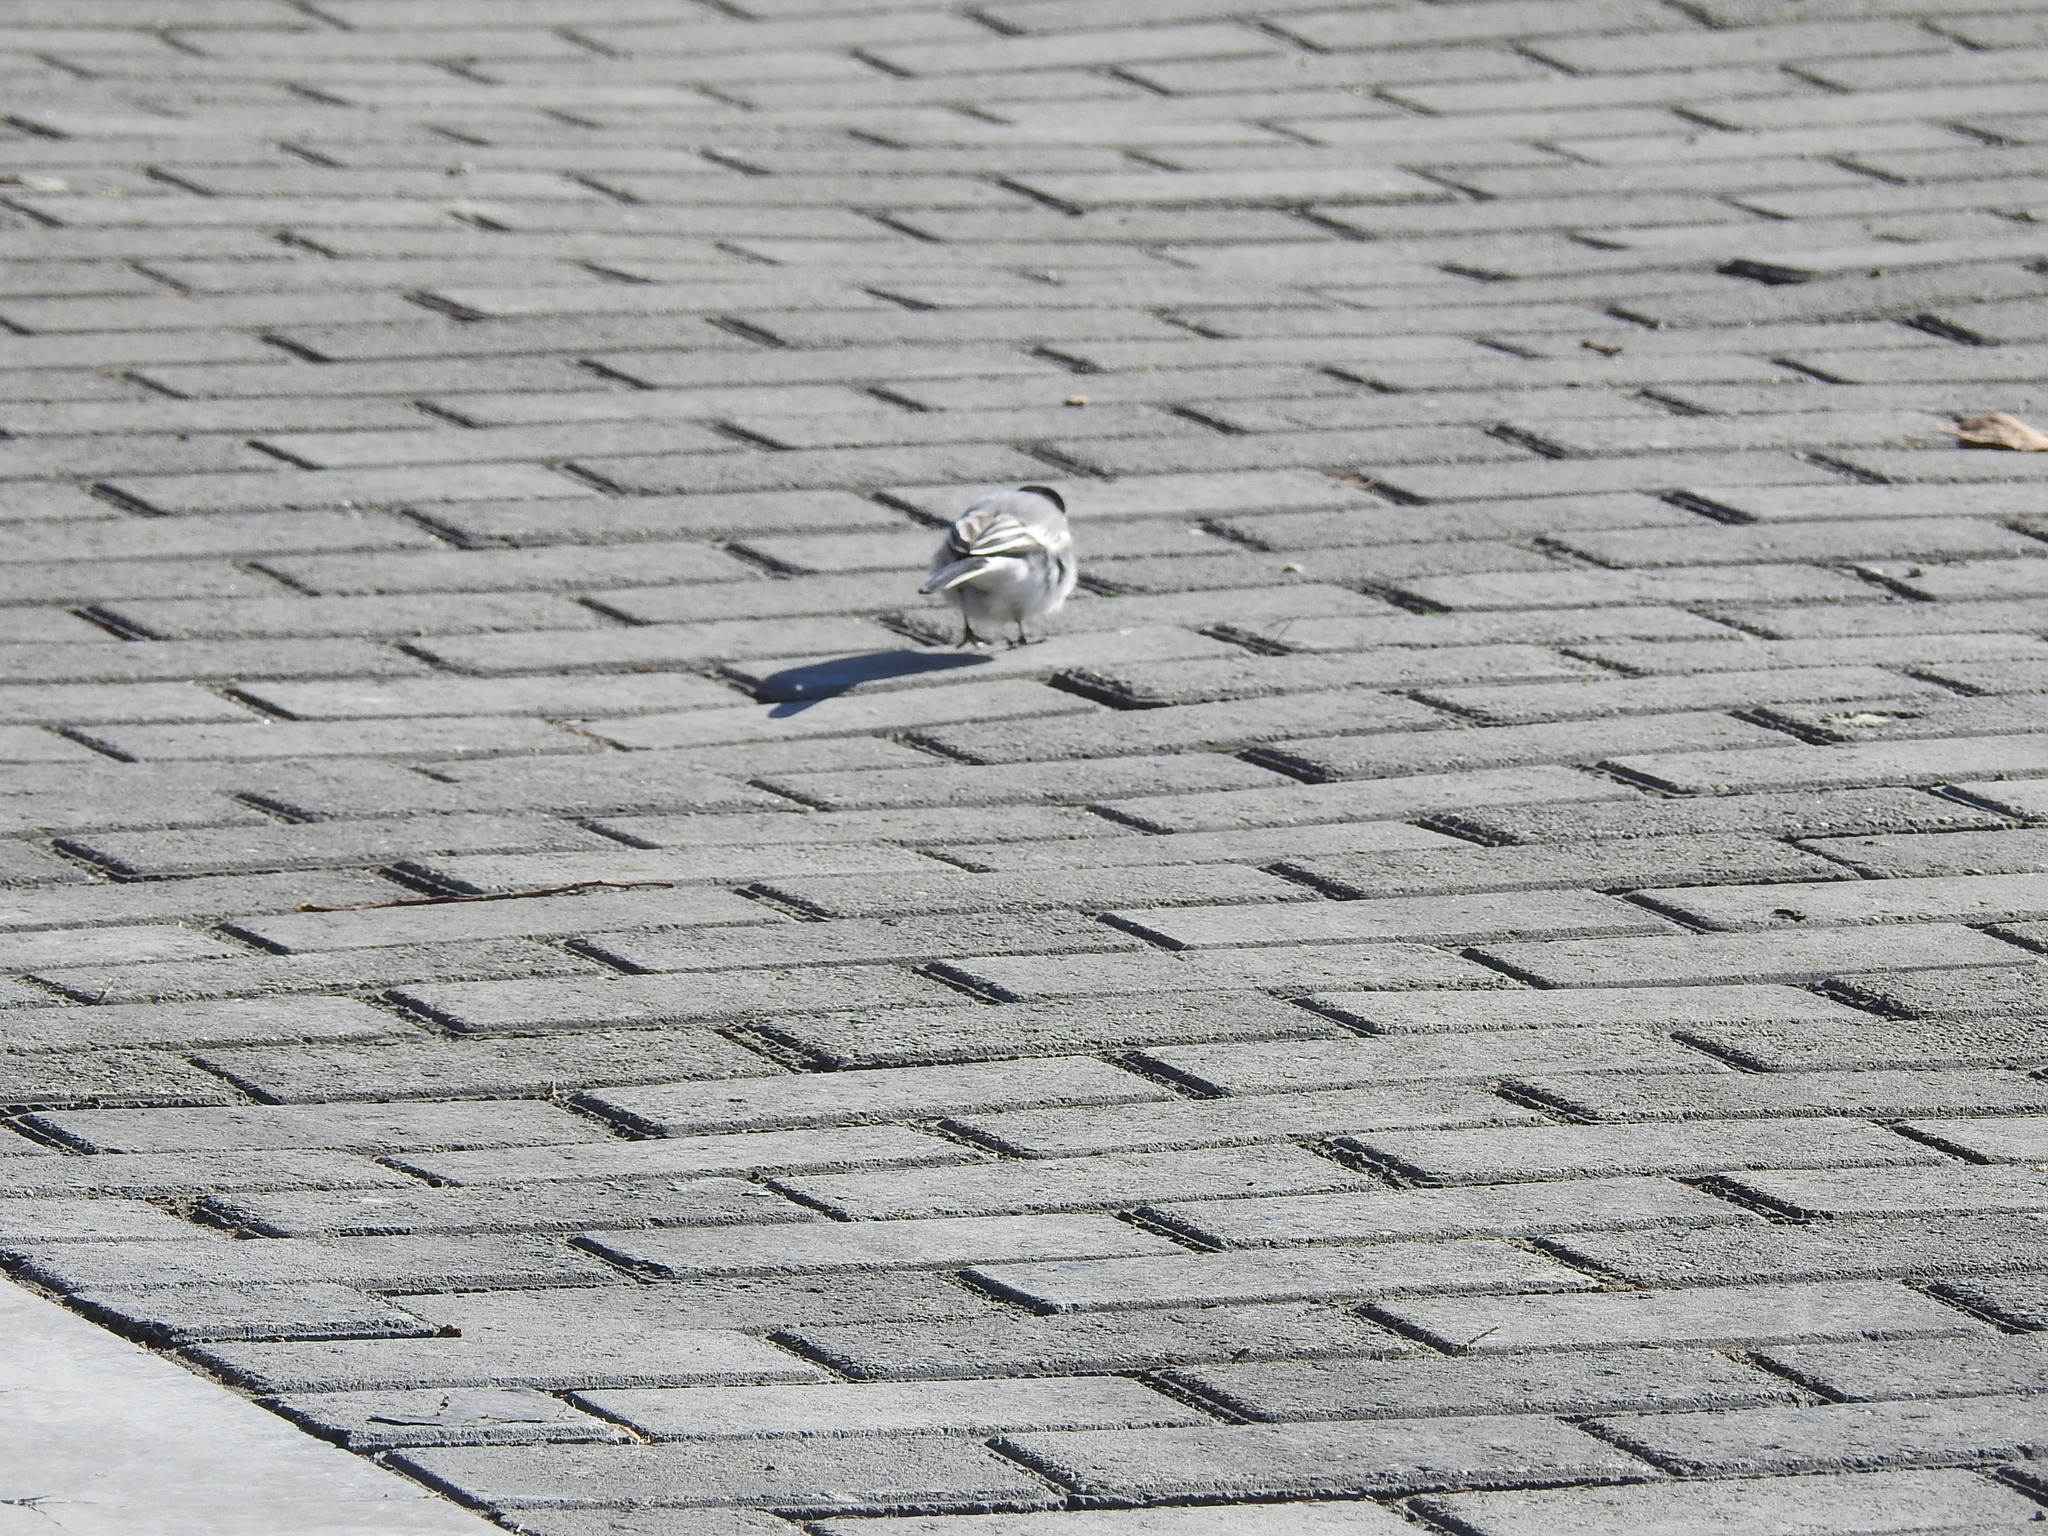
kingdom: Animalia
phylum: Chordata
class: Aves
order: Passeriformes
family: Motacillidae
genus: Motacilla
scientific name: Motacilla alba
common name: White wagtail
